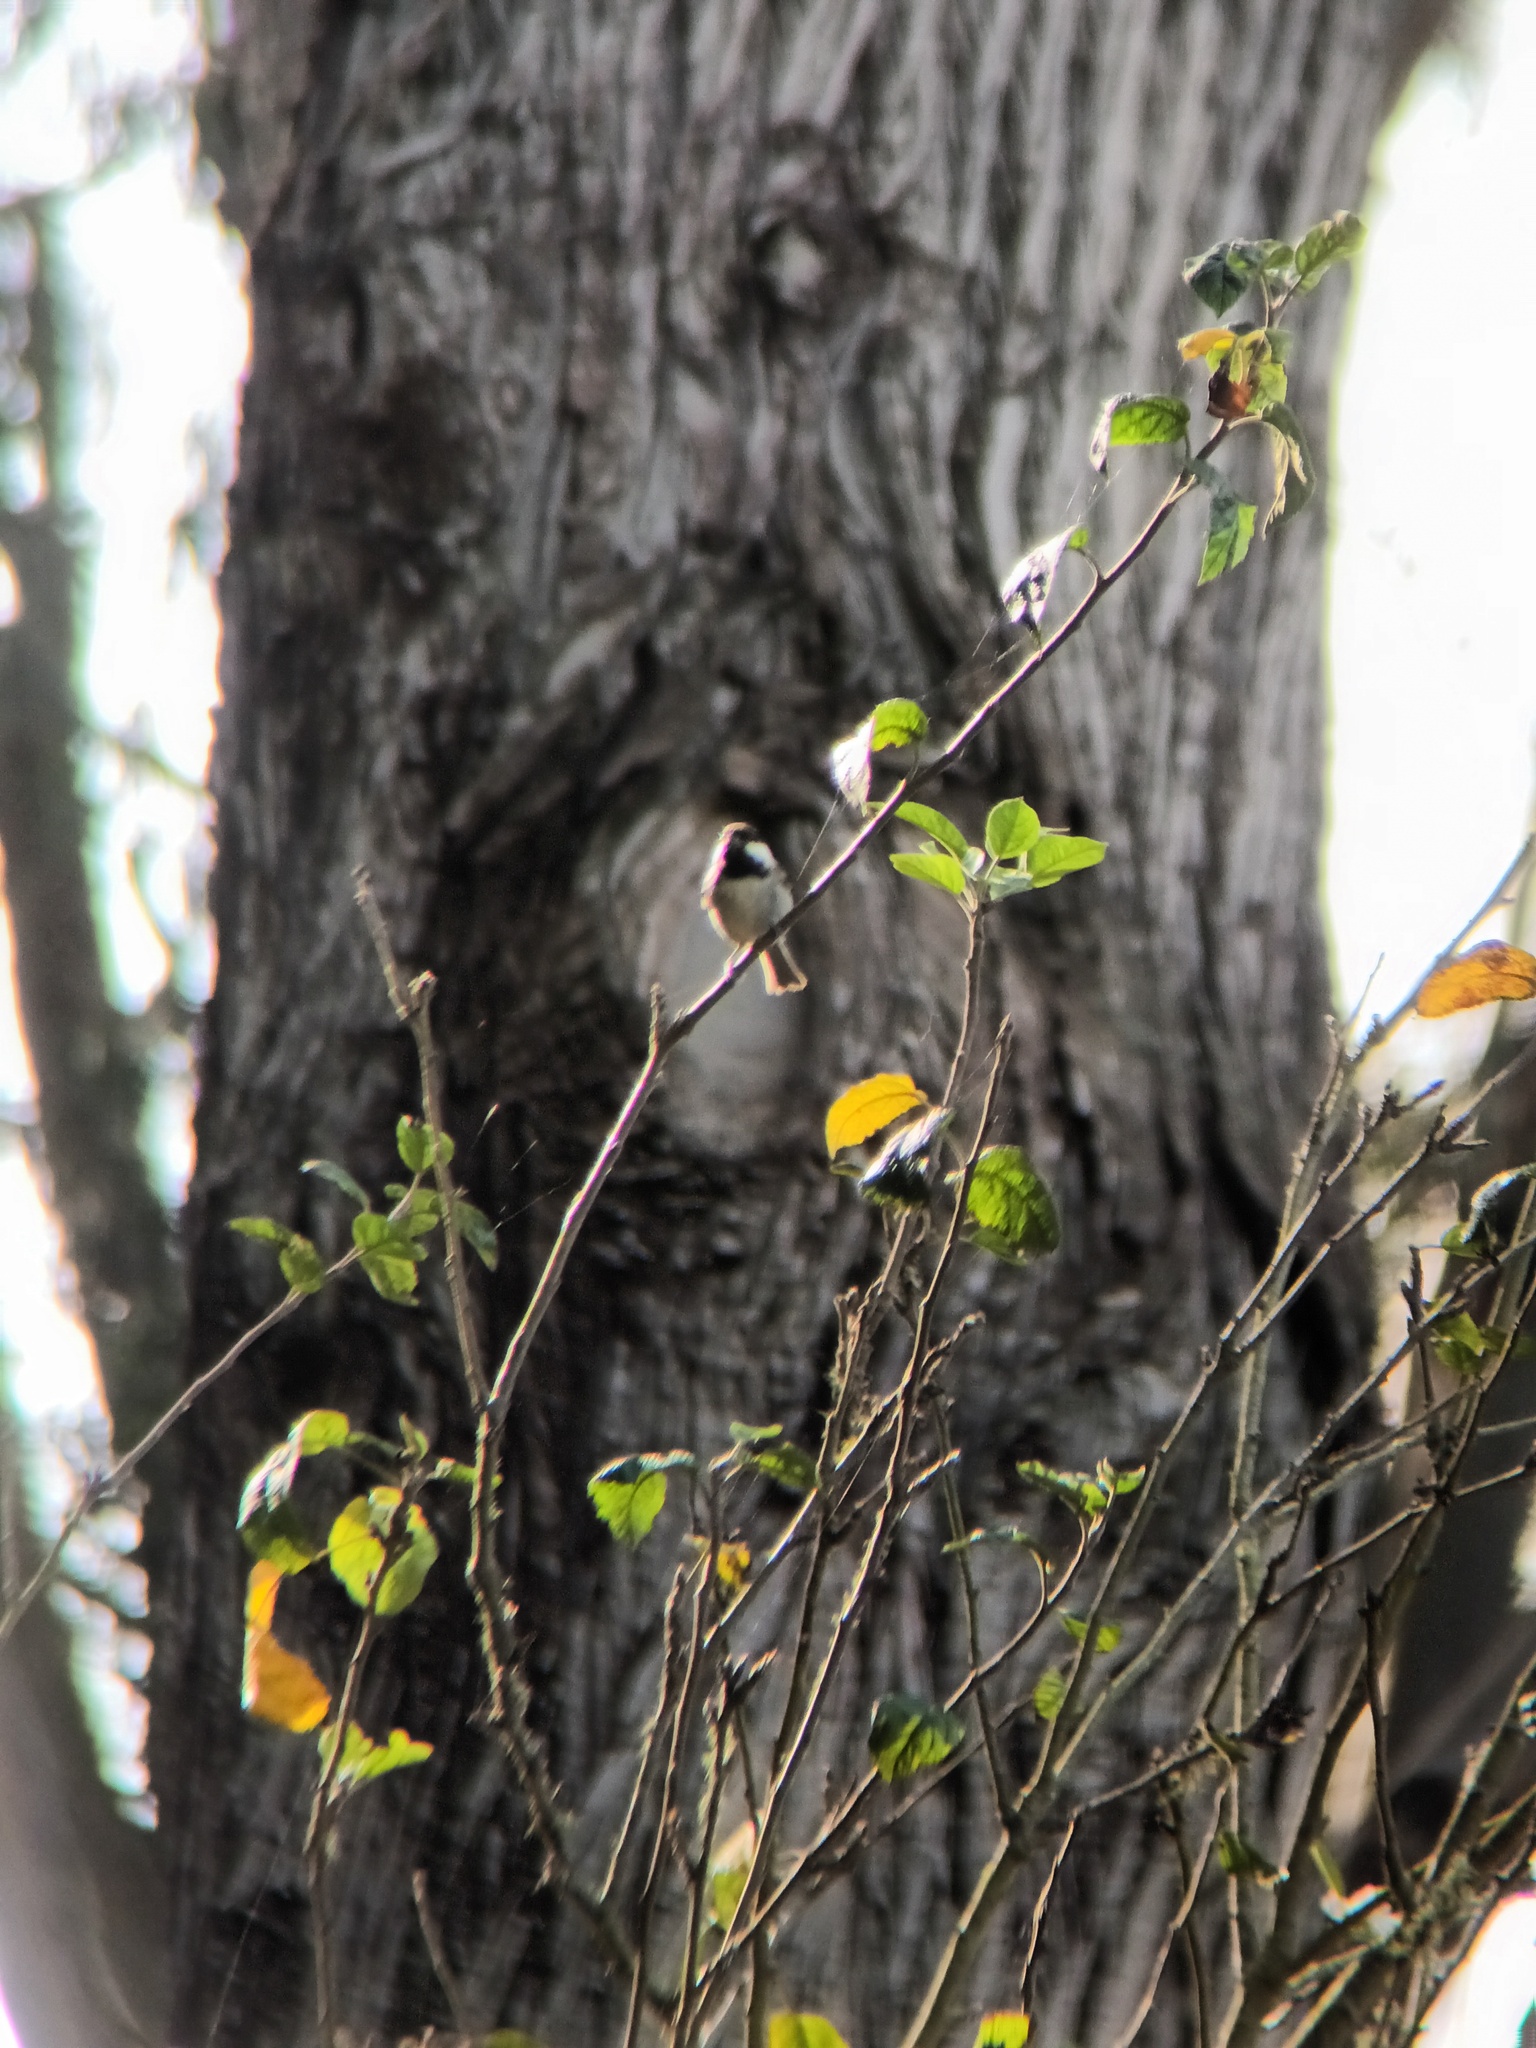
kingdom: Animalia
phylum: Chordata
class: Aves
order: Passeriformes
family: Paridae
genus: Poecile
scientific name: Poecile rufescens
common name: Chestnut-backed chickadee
